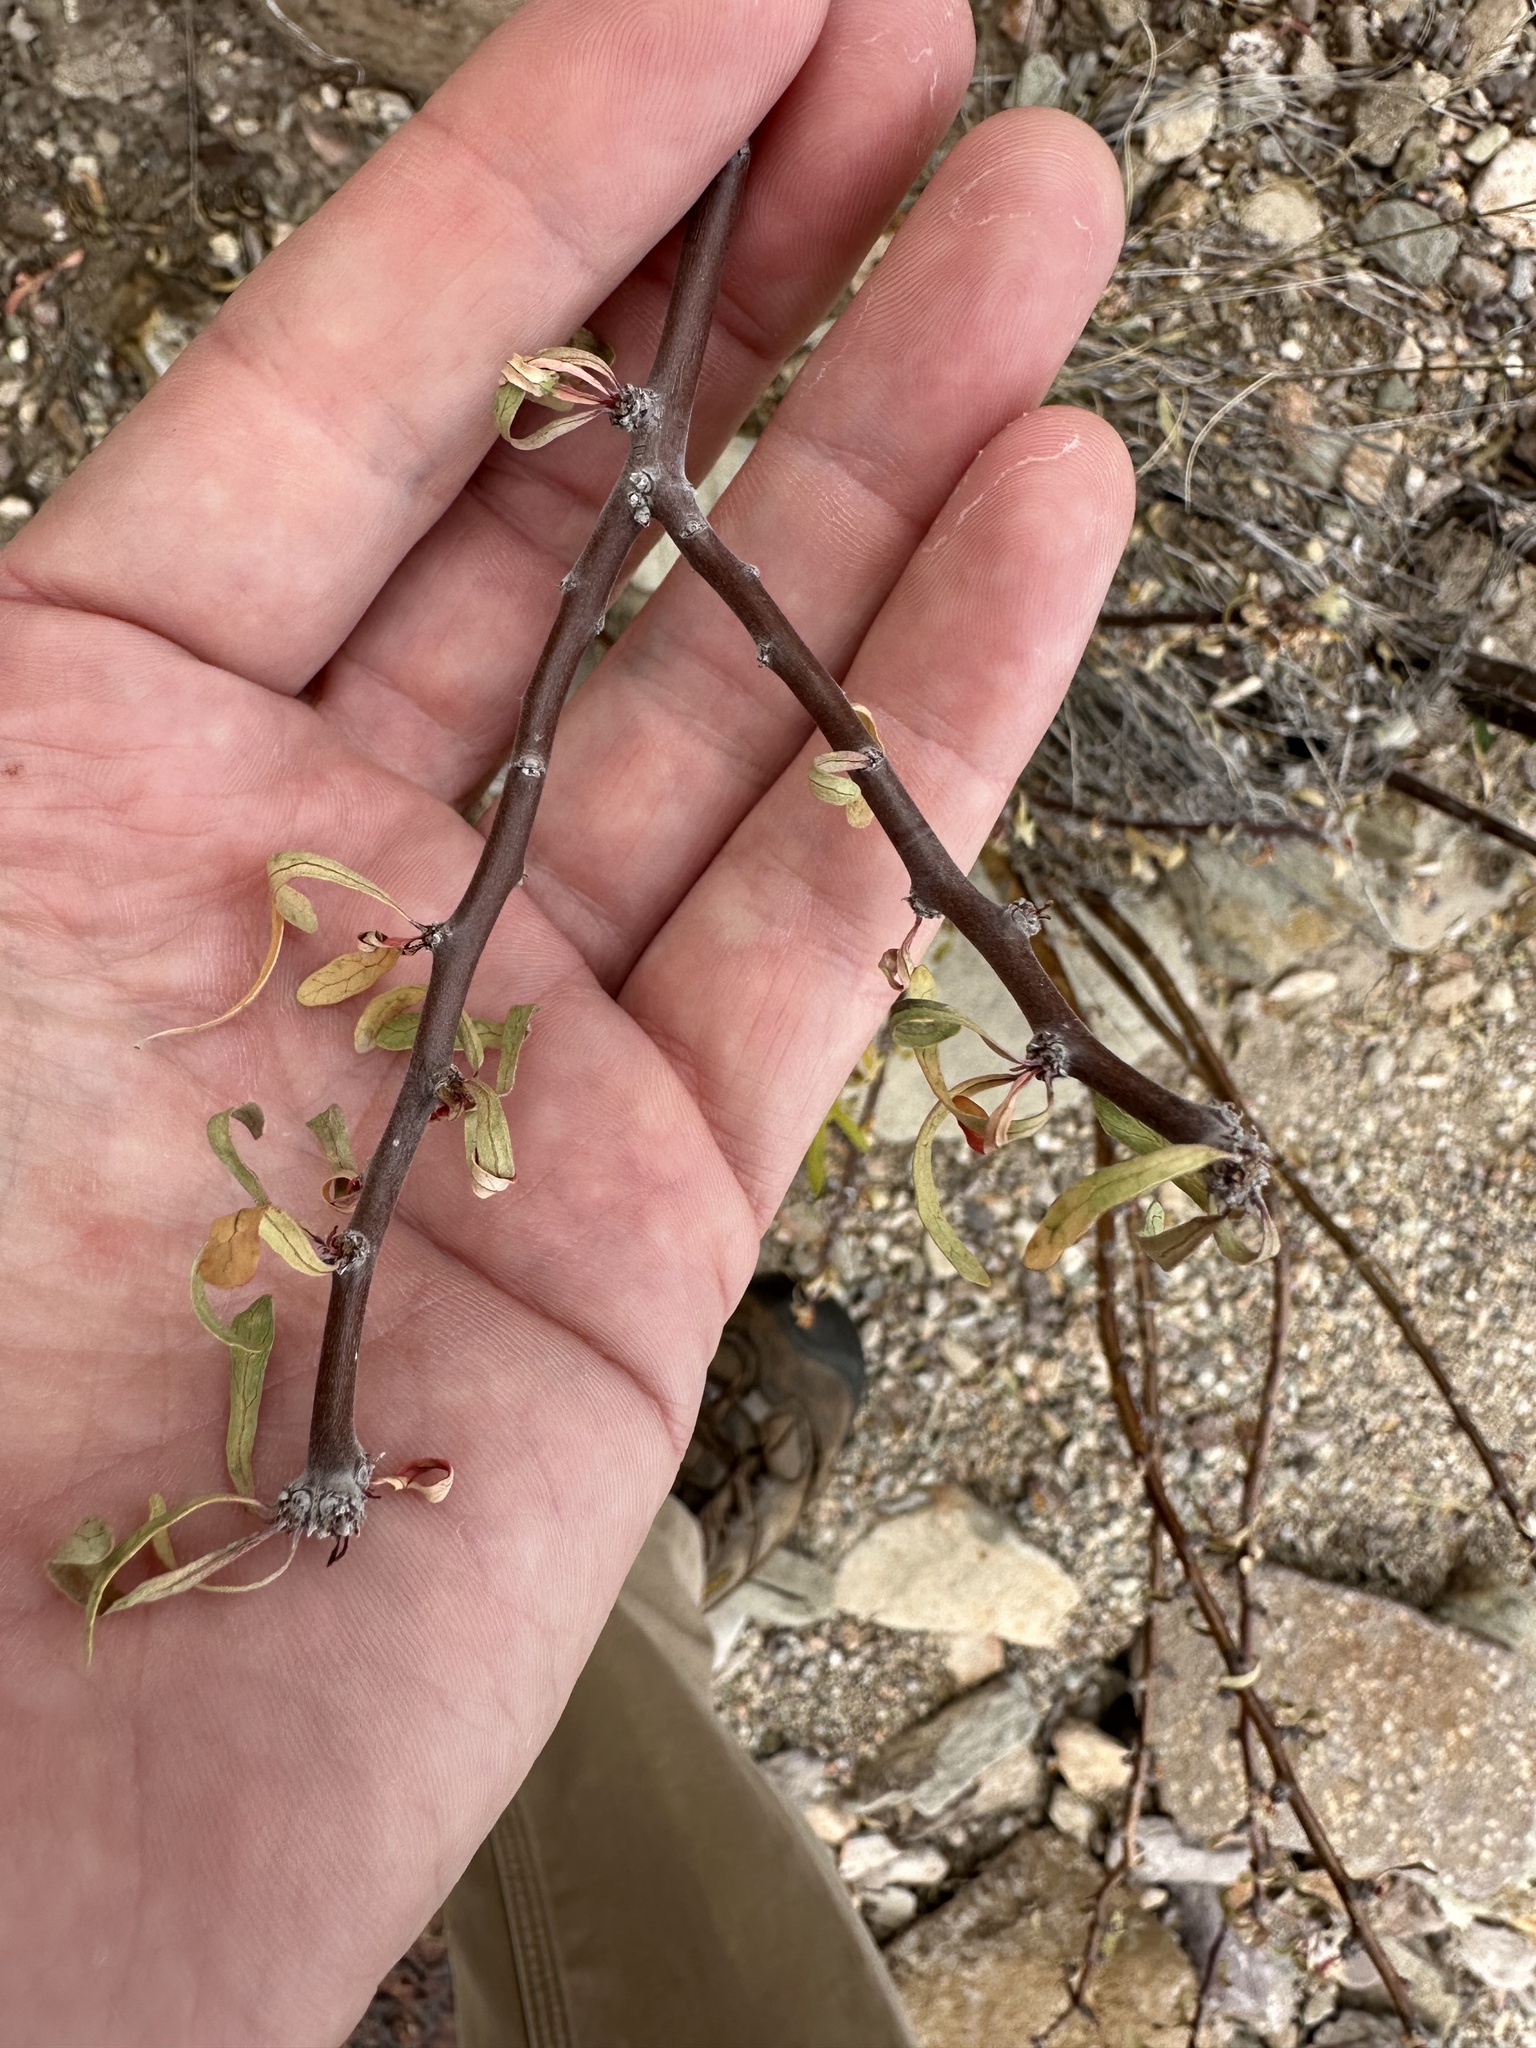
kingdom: Plantae
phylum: Tracheophyta
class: Magnoliopsida
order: Malpighiales
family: Euphorbiaceae
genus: Jatropha
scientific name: Jatropha dioica
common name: Leatherstem
